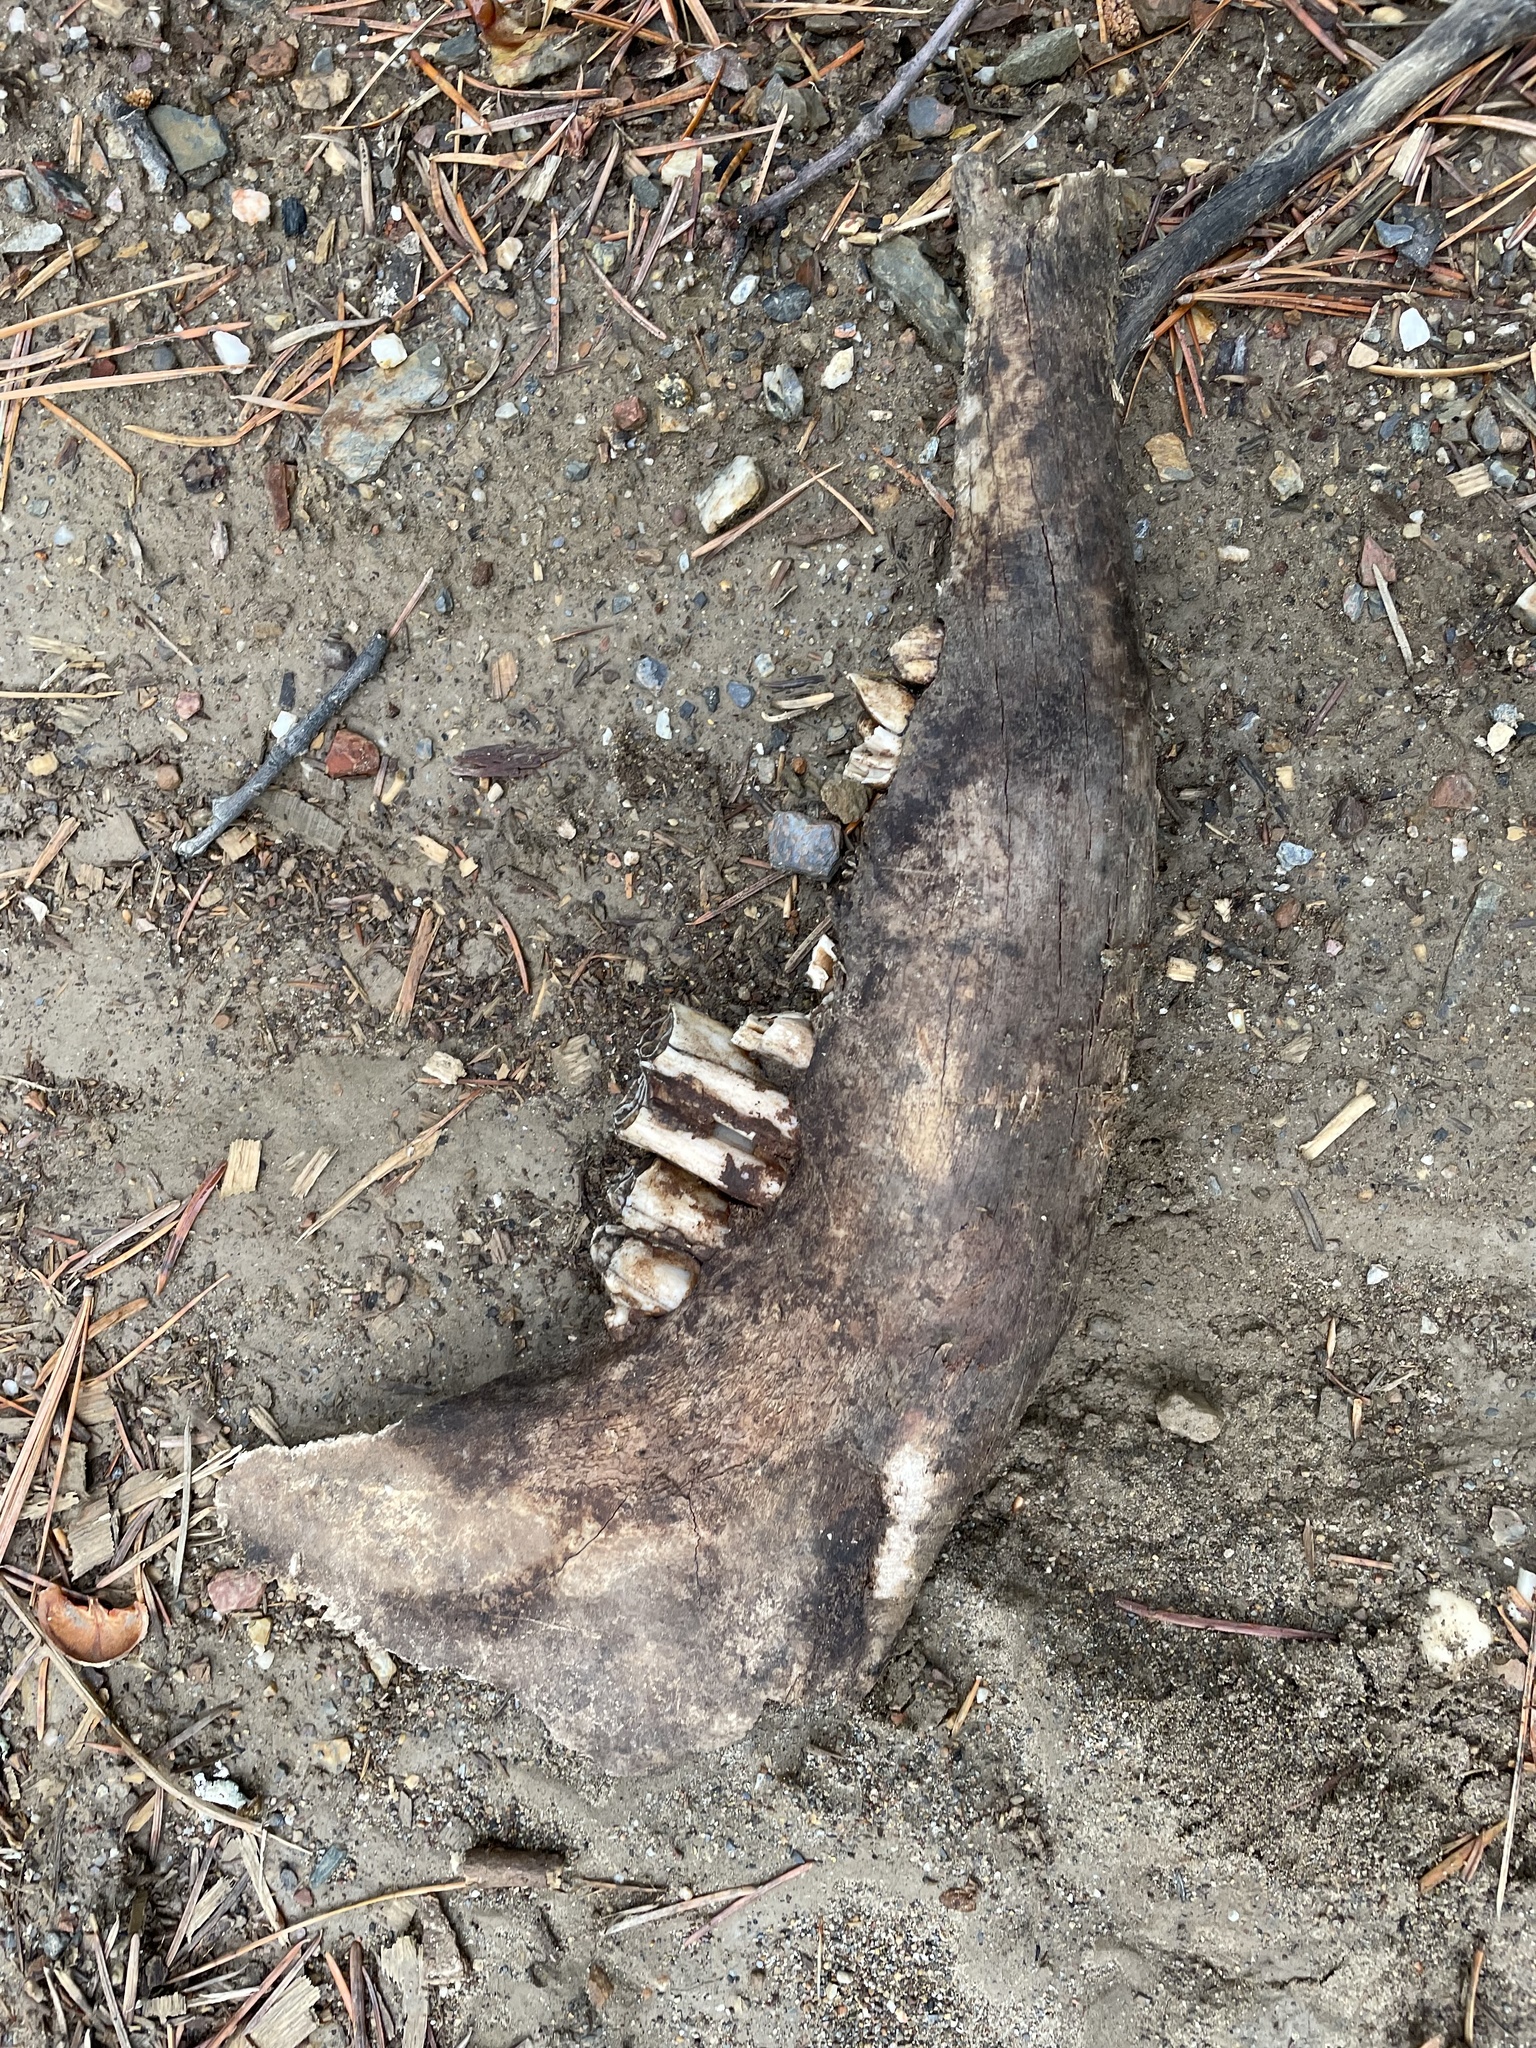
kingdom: Animalia
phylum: Chordata
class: Mammalia
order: Artiodactyla
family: Bovidae
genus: Bos
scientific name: Bos taurus
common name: Domesticated cattle
